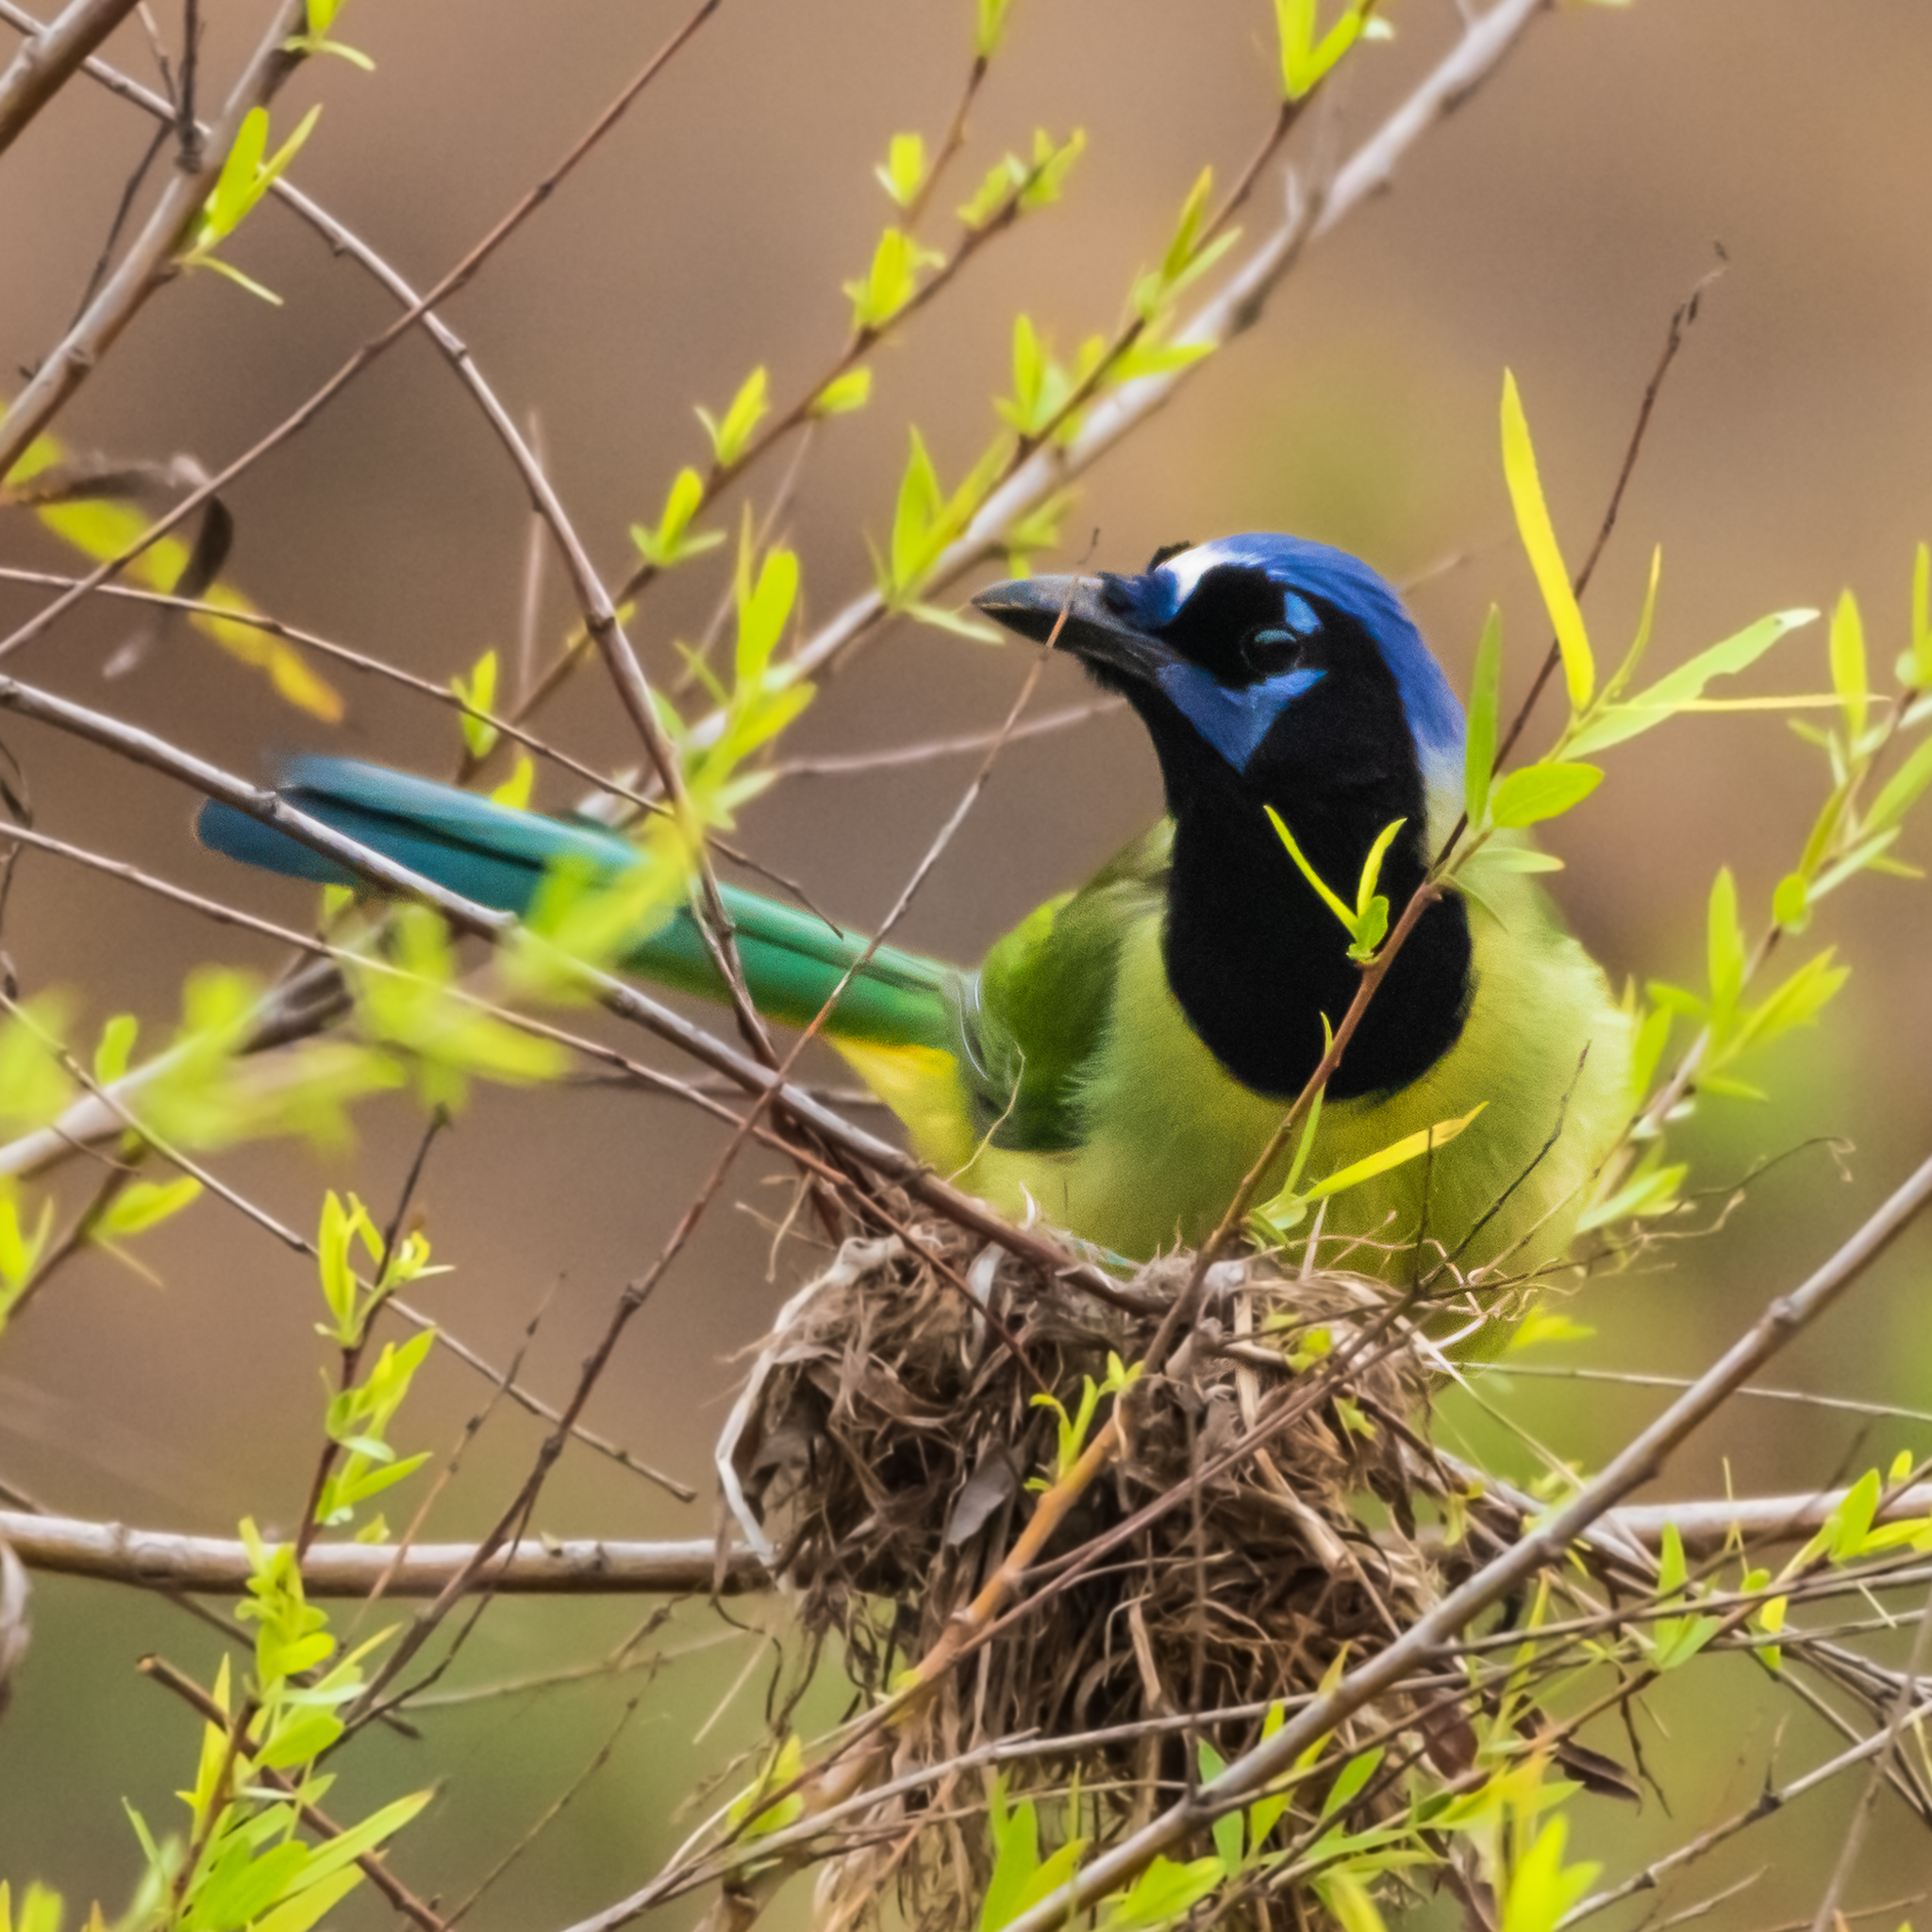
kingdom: Animalia
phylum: Chordata
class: Aves
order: Passeriformes
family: Corvidae
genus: Cyanocorax
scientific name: Cyanocorax yncas
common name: Green jay
